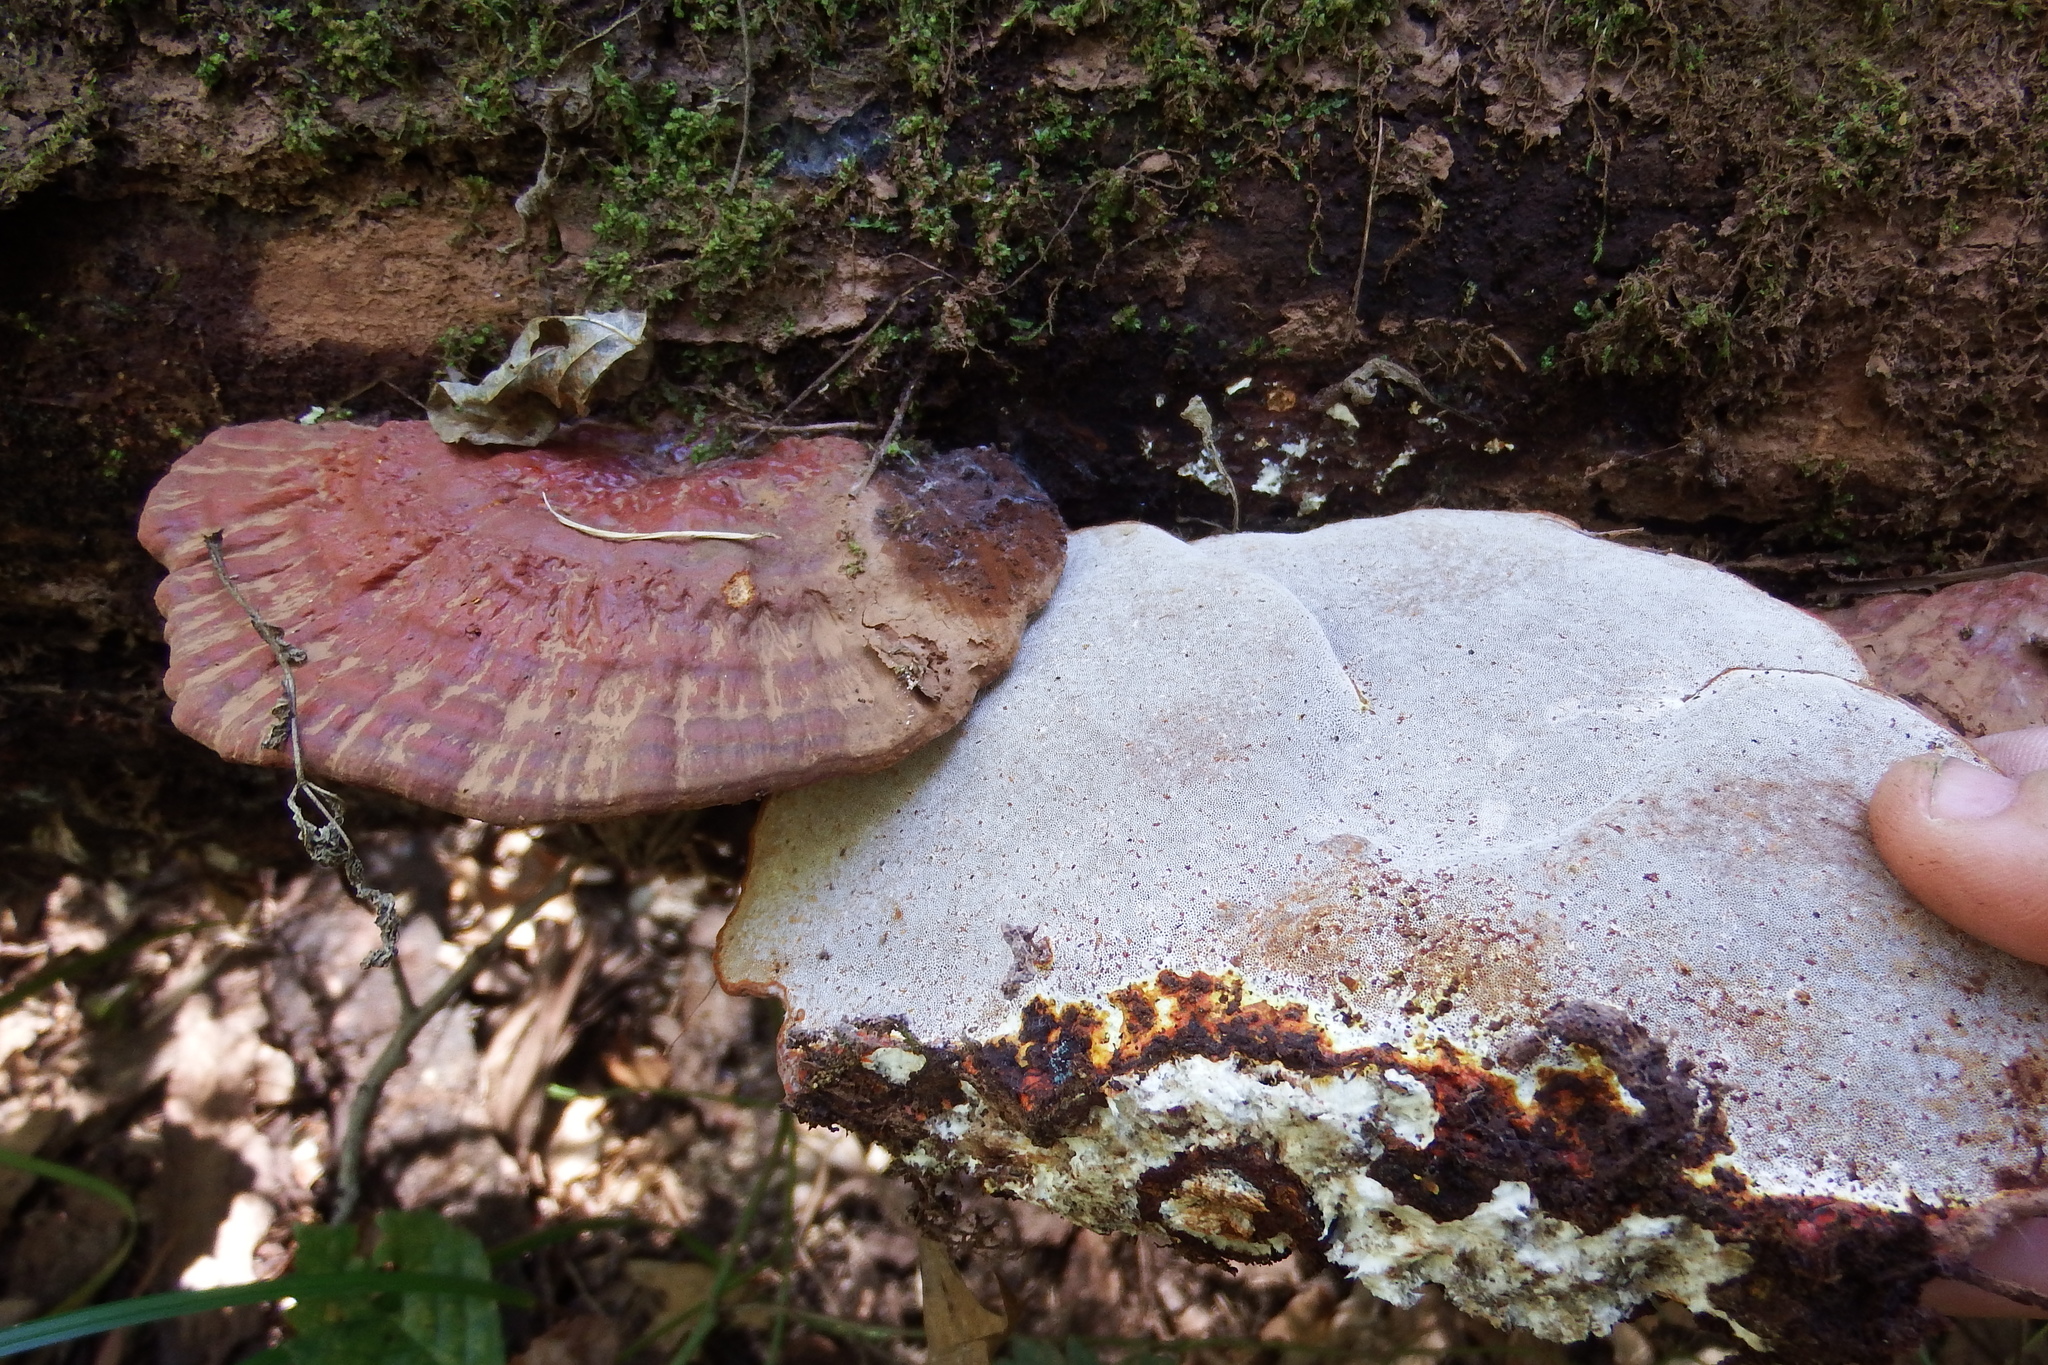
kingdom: Fungi
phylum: Basidiomycota
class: Agaricomycetes
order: Polyporales
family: Polyporaceae
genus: Ganoderma
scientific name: Ganoderma resinaceum
